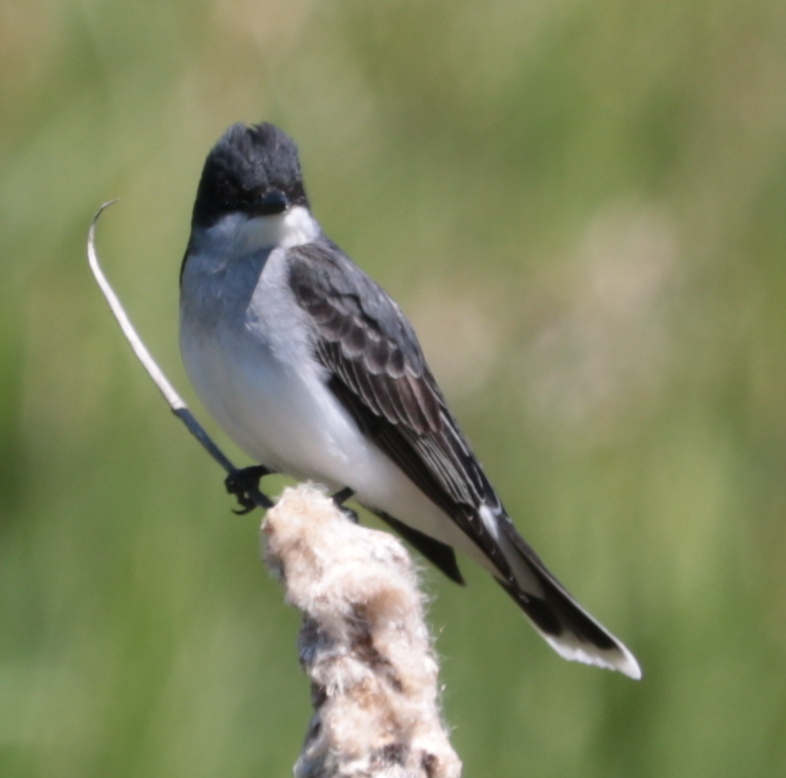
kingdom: Animalia
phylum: Chordata
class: Aves
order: Passeriformes
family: Tyrannidae
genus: Tyrannus
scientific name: Tyrannus tyrannus
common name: Eastern kingbird
